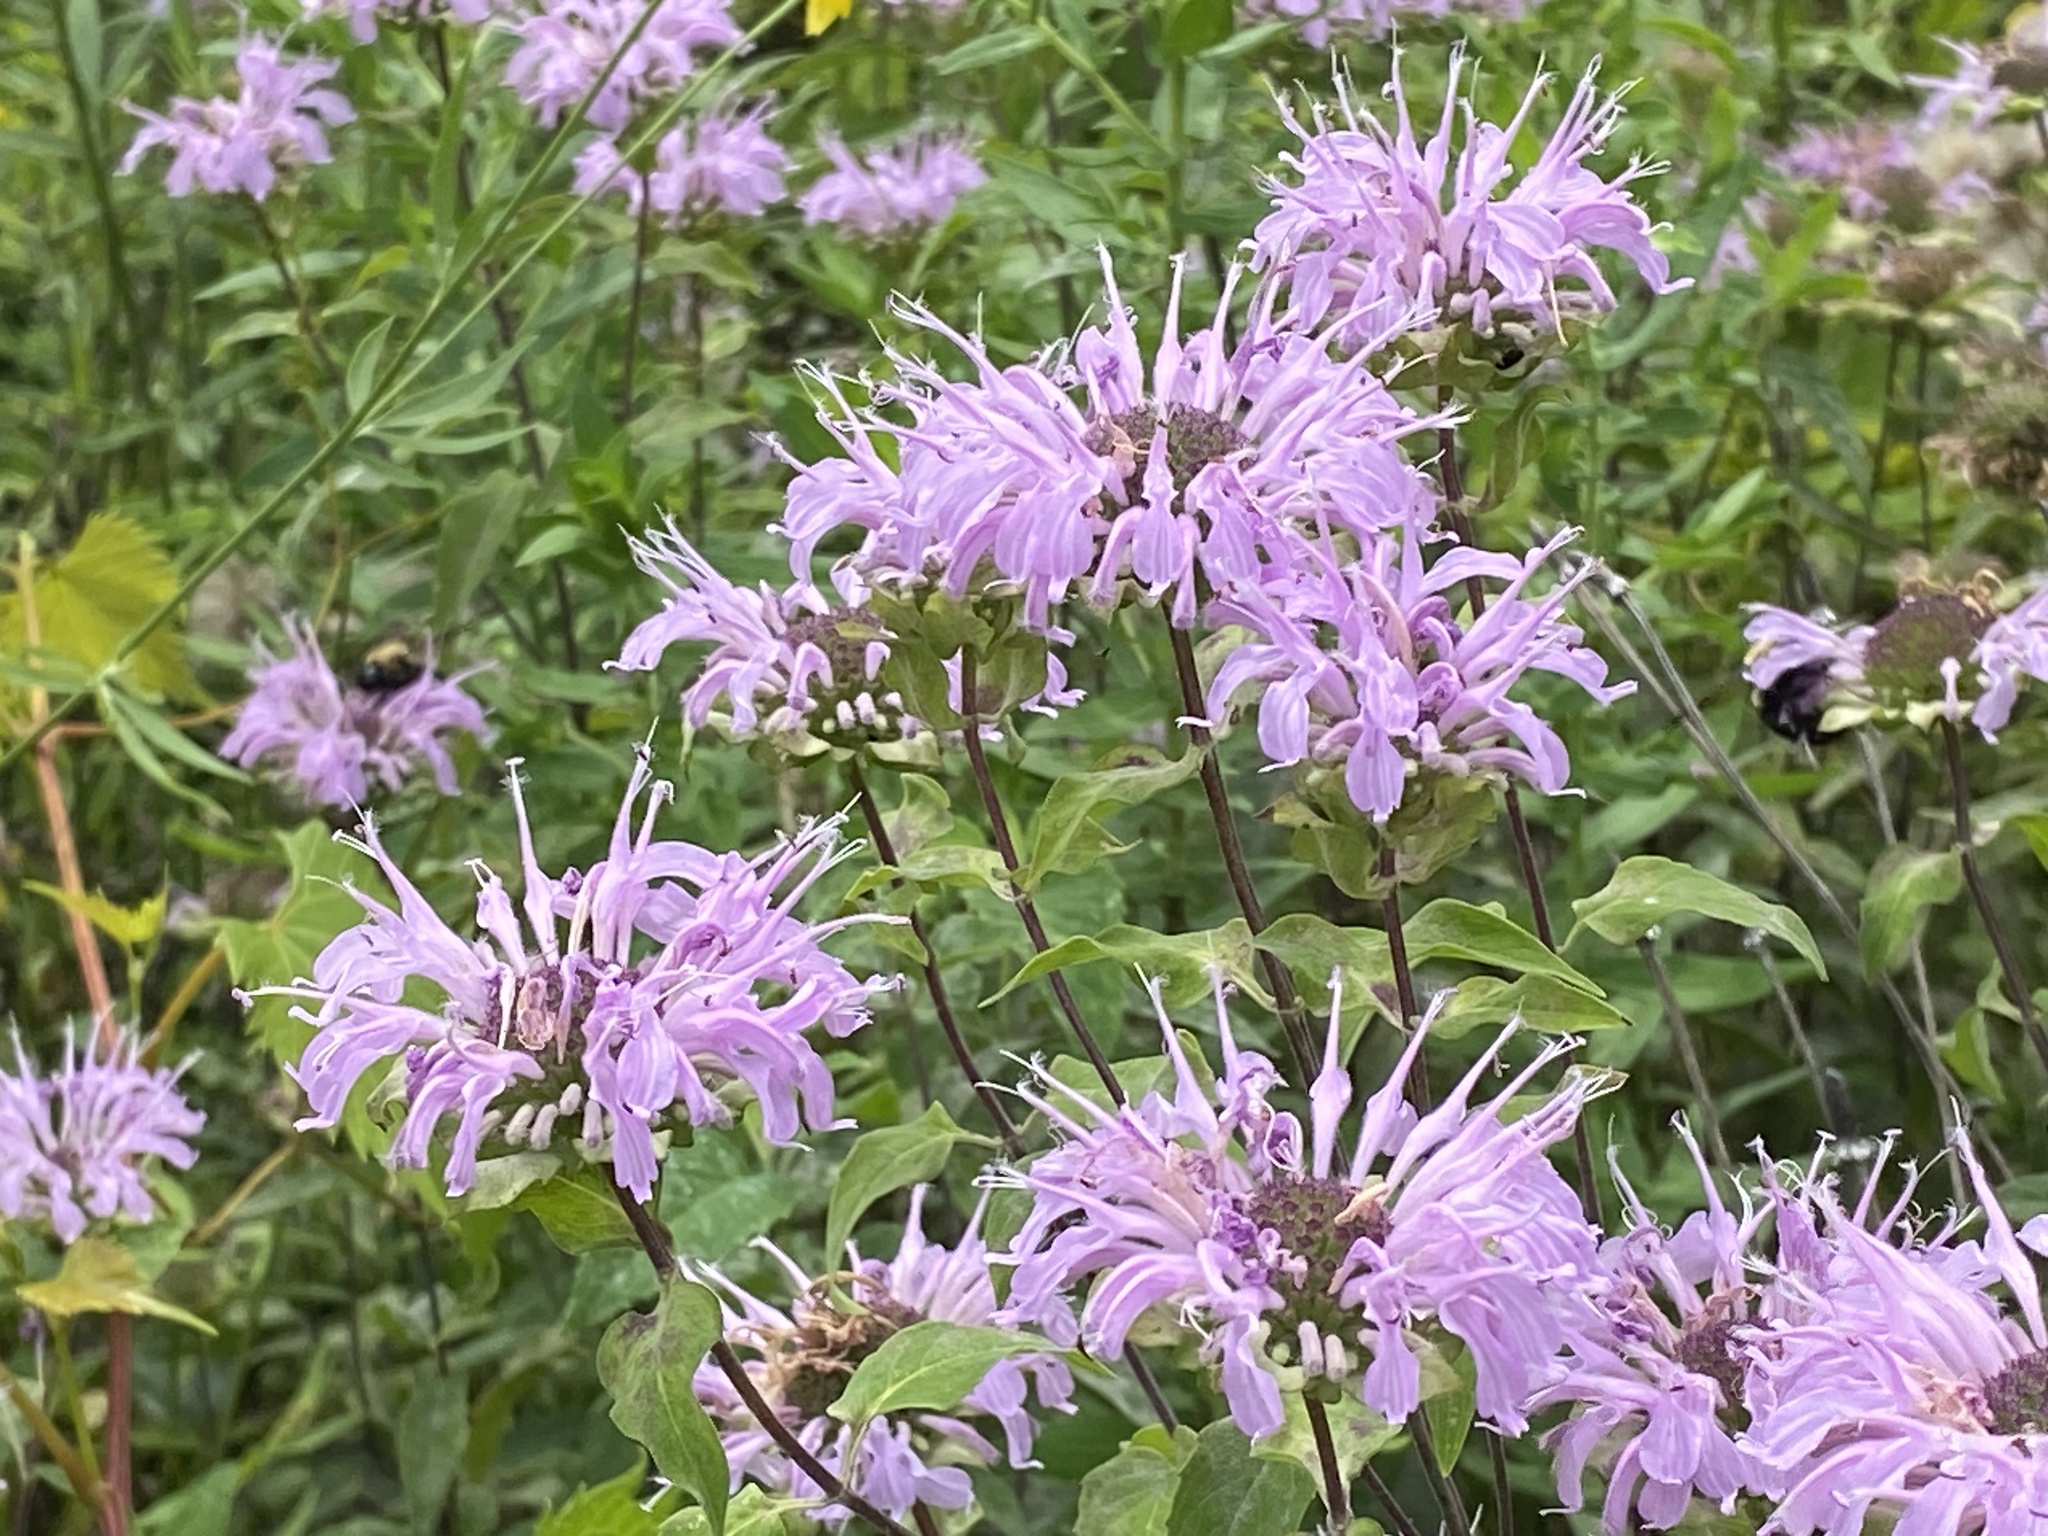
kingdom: Plantae
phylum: Tracheophyta
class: Magnoliopsida
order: Lamiales
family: Lamiaceae
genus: Monarda
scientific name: Monarda fistulosa
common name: Purple beebalm
